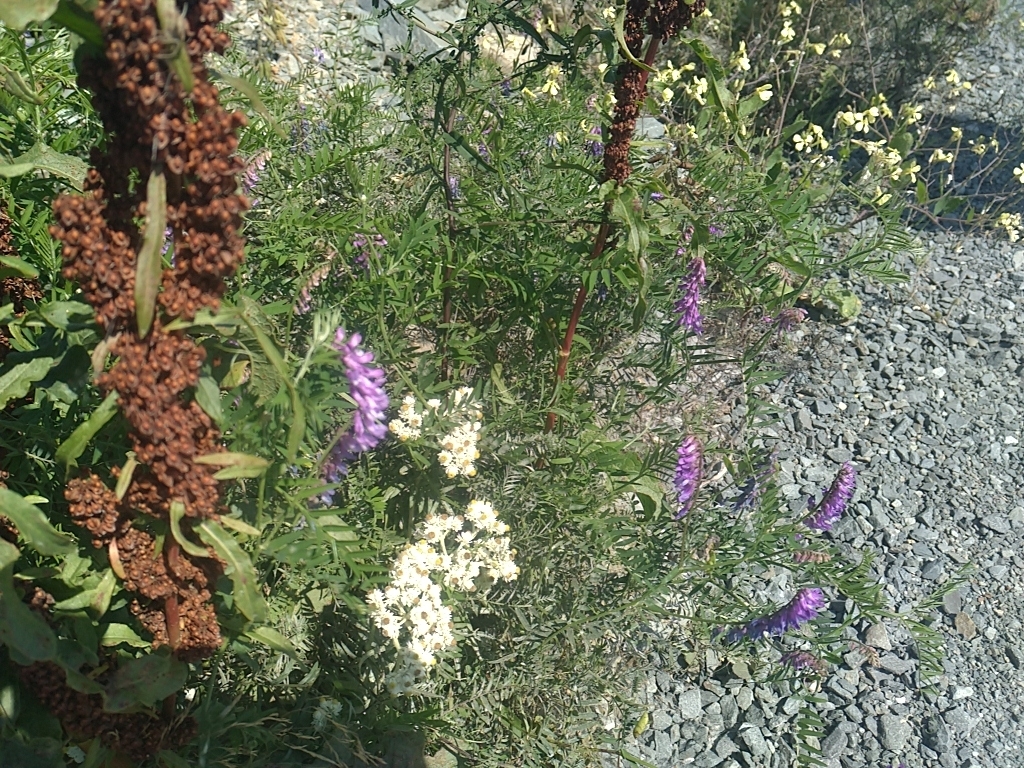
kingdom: Plantae
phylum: Tracheophyta
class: Magnoliopsida
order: Fabales
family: Fabaceae
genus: Vicia
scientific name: Vicia cracca
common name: Bird vetch
